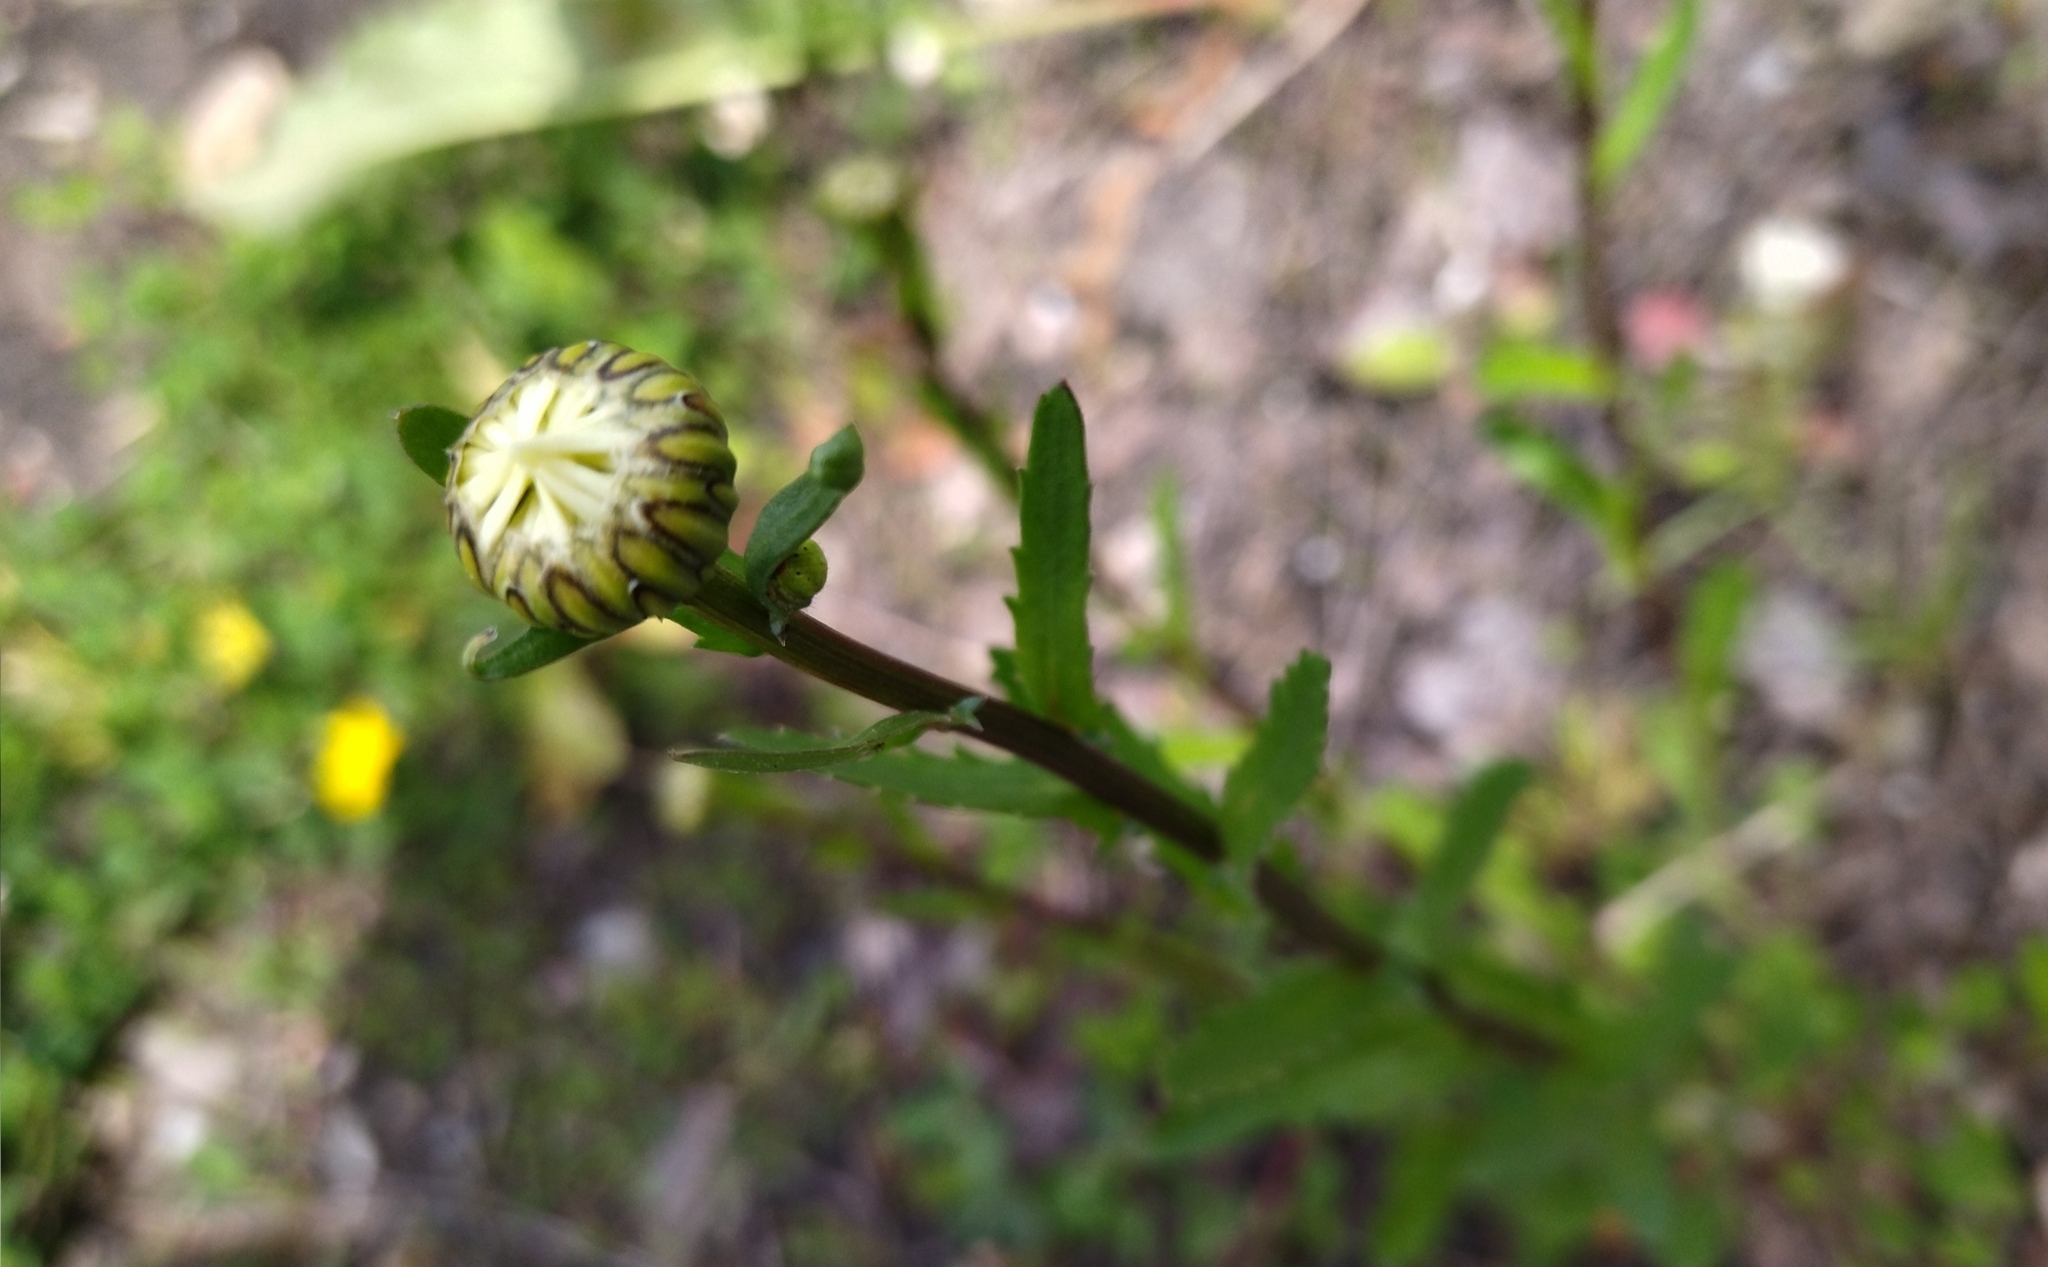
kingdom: Plantae
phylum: Tracheophyta
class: Magnoliopsida
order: Asterales
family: Asteraceae
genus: Leucanthemum
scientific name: Leucanthemum vulgare
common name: Oxeye daisy
